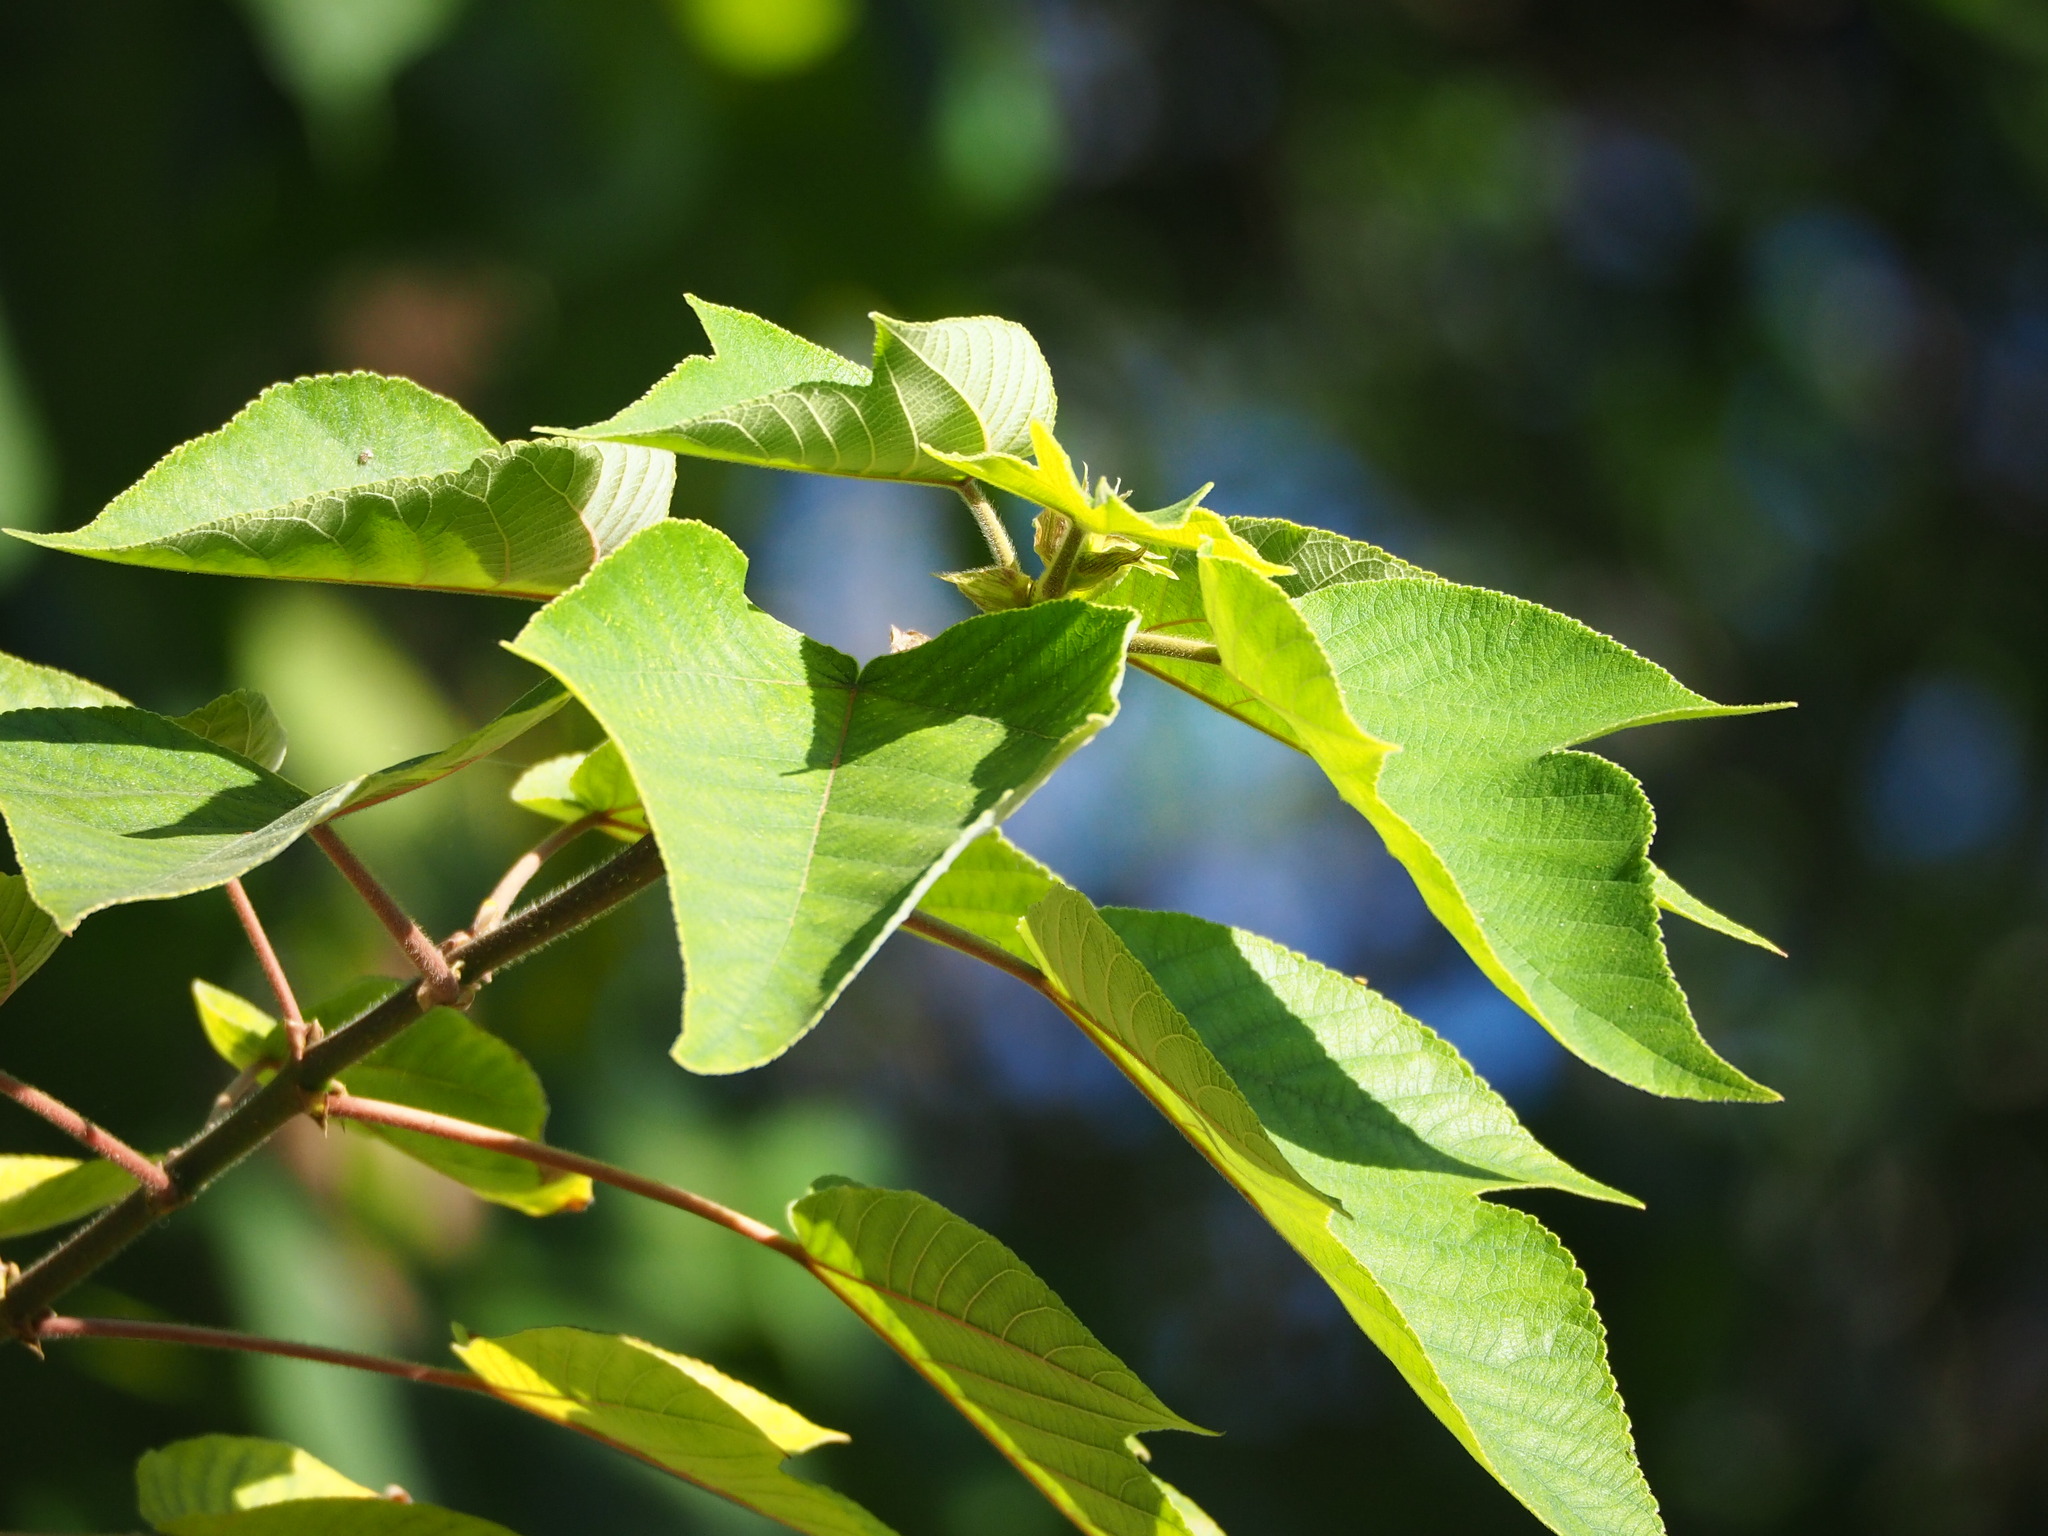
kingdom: Plantae
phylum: Tracheophyta
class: Magnoliopsida
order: Rosales
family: Moraceae
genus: Broussonetia
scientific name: Broussonetia papyrifera
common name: Paper mulberry
